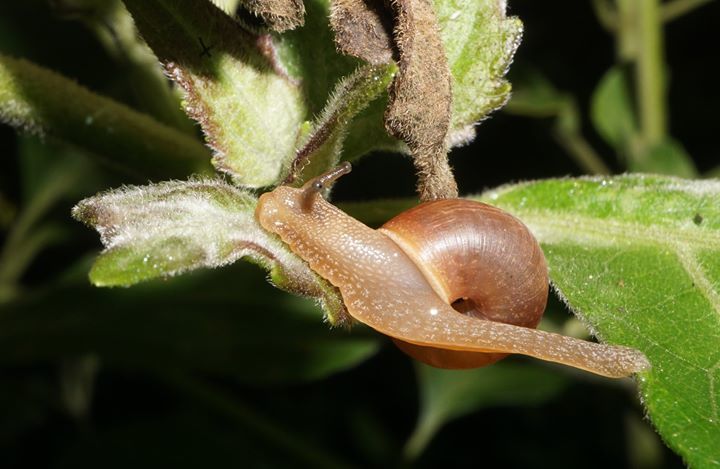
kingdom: Animalia
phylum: Mollusca
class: Gastropoda
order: Stylommatophora
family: Camaenidae
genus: Bradybaena
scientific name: Bradybaena similaris
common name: Asian trampsnail
